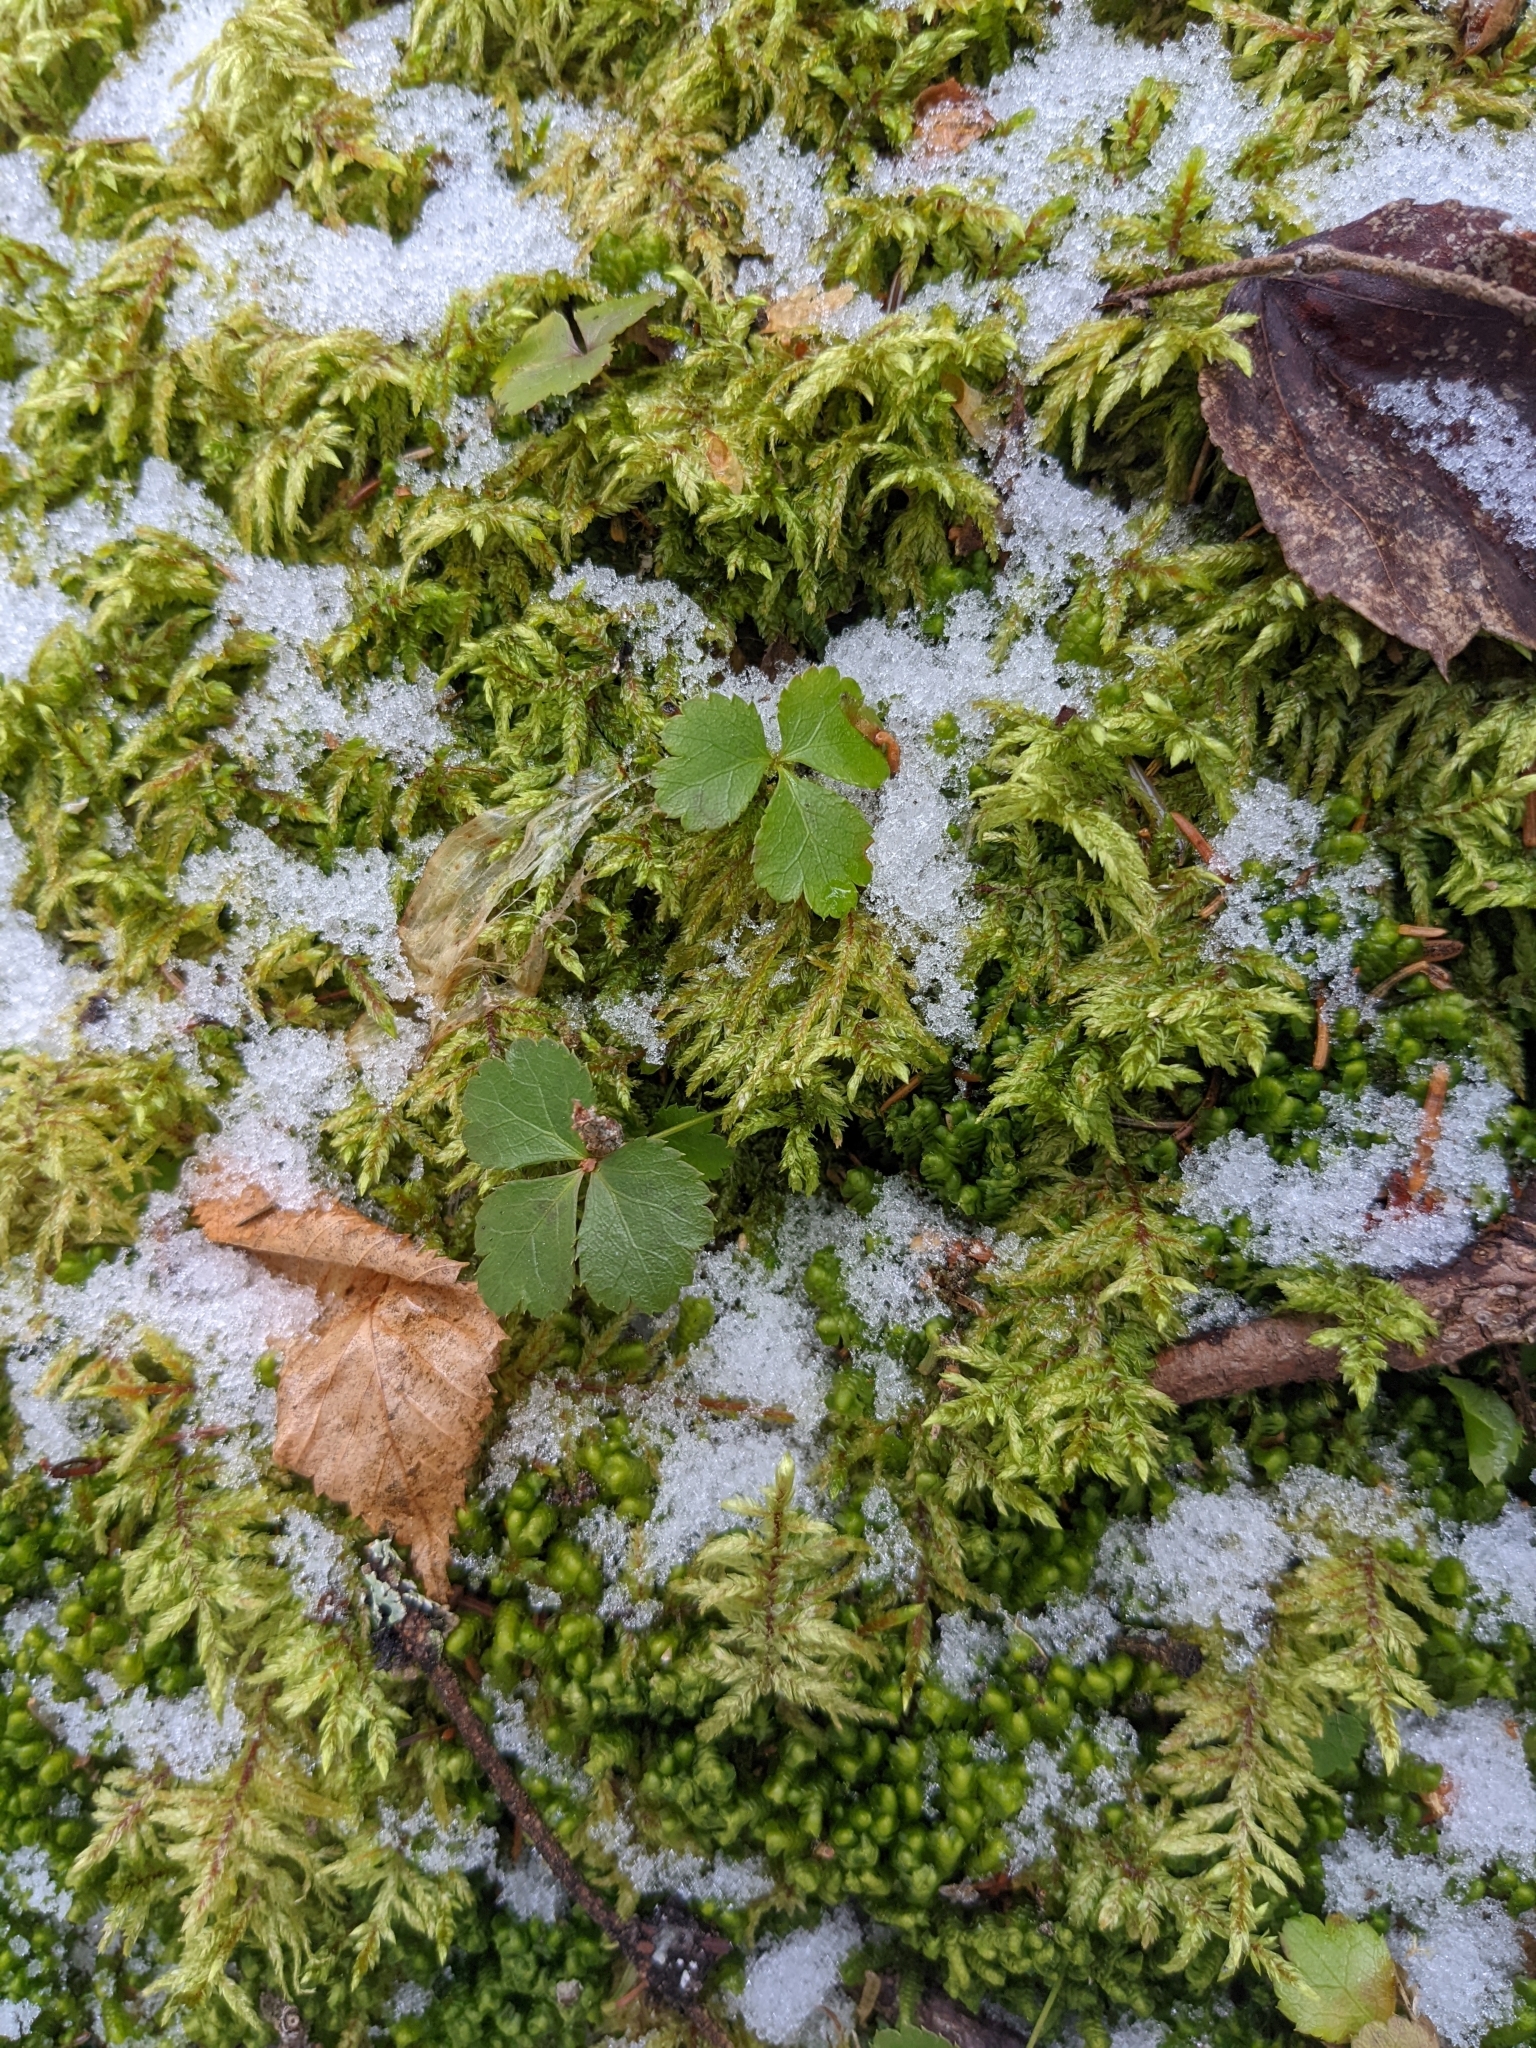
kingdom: Plantae
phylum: Tracheophyta
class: Magnoliopsida
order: Ranunculales
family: Ranunculaceae
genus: Coptis
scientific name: Coptis trifolia
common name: Canker-root
